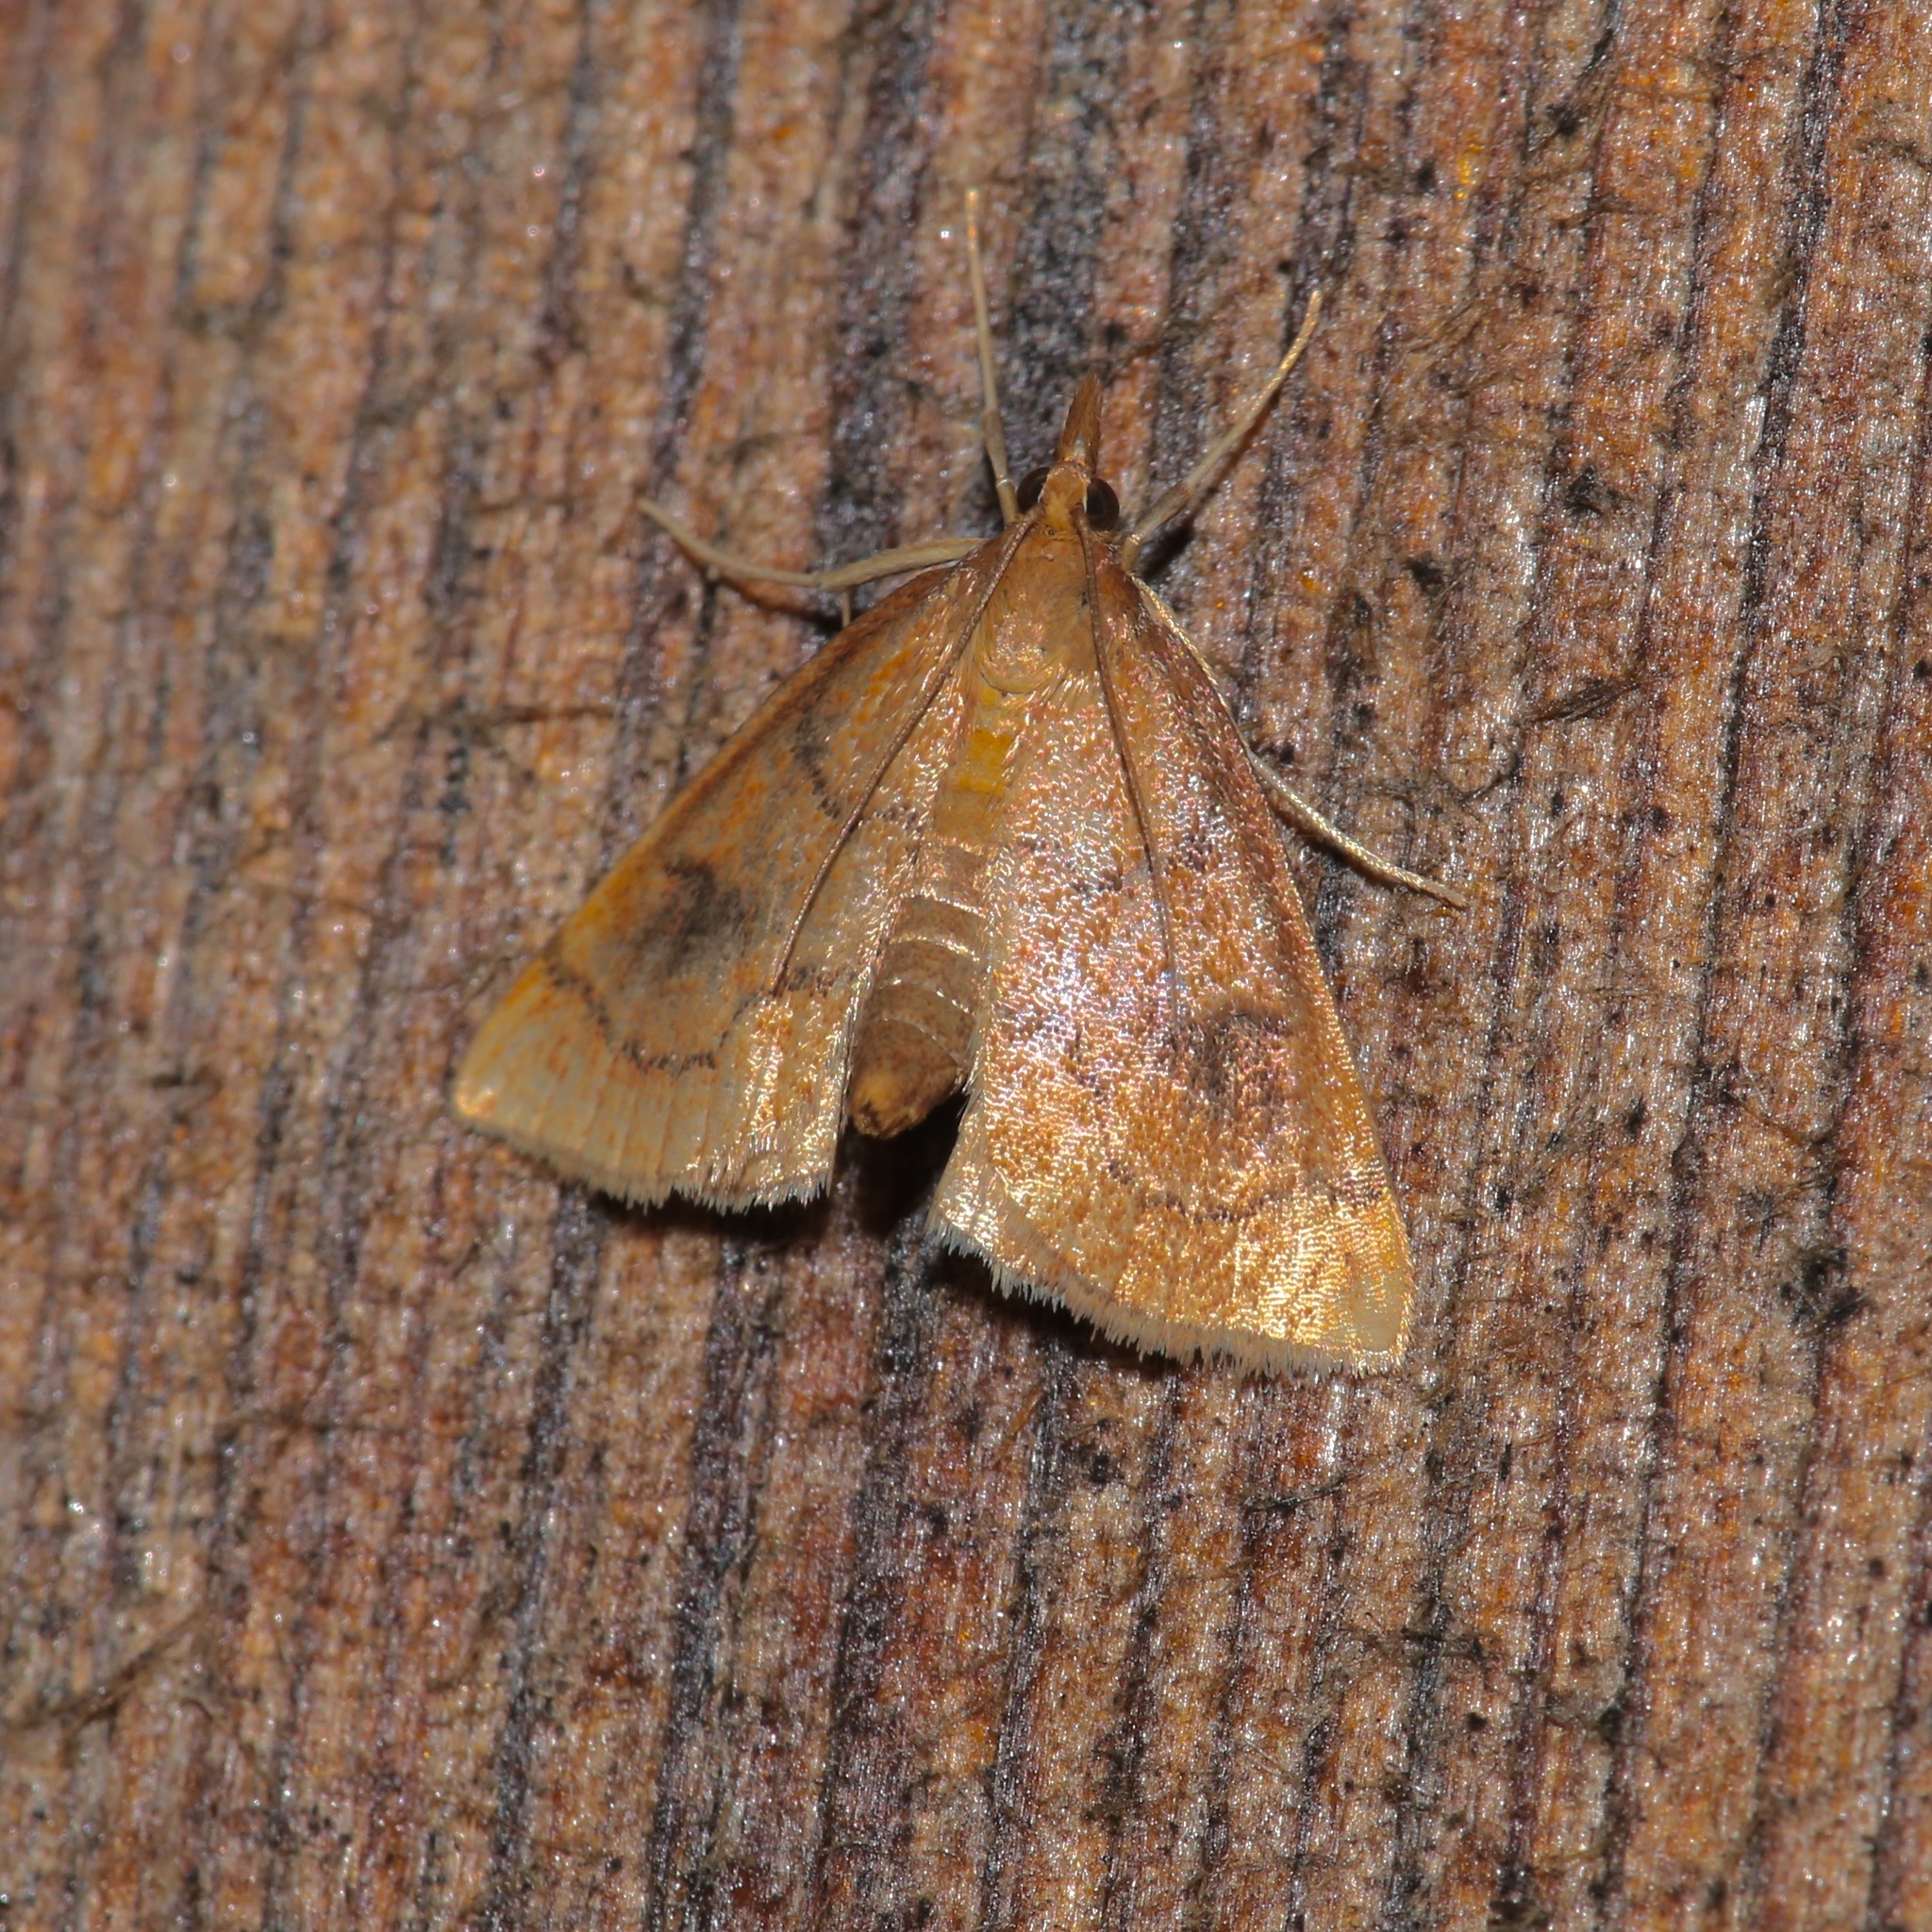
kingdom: Animalia
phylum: Arthropoda
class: Insecta
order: Lepidoptera
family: Crambidae
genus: Fumibotys
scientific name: Fumibotys fumalis
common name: Mint root borer moth
